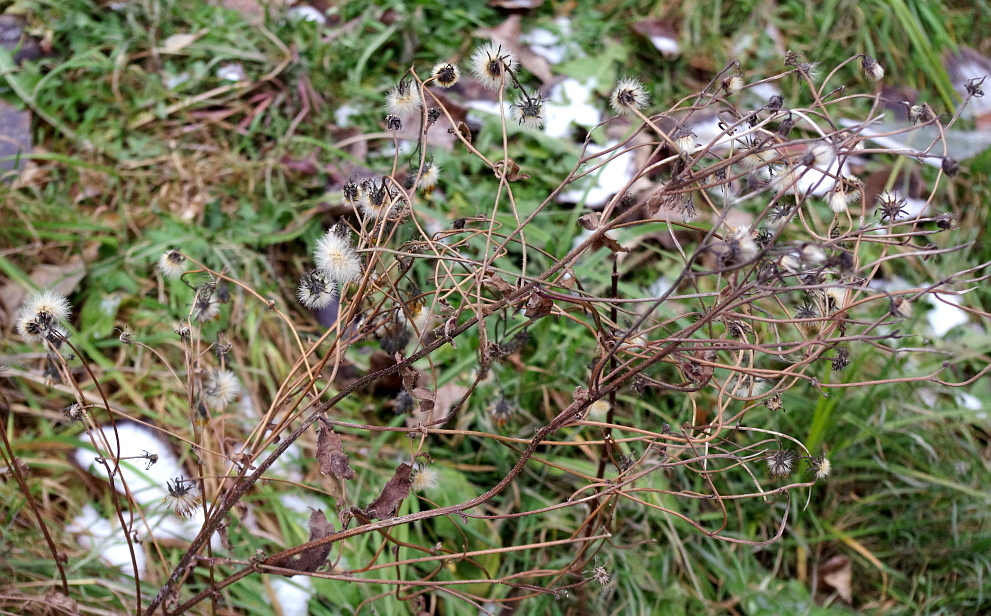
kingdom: Plantae
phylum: Tracheophyta
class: Magnoliopsida
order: Asterales
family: Asteraceae
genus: Picris
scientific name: Picris hieracioides
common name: Hawkweed oxtongue
